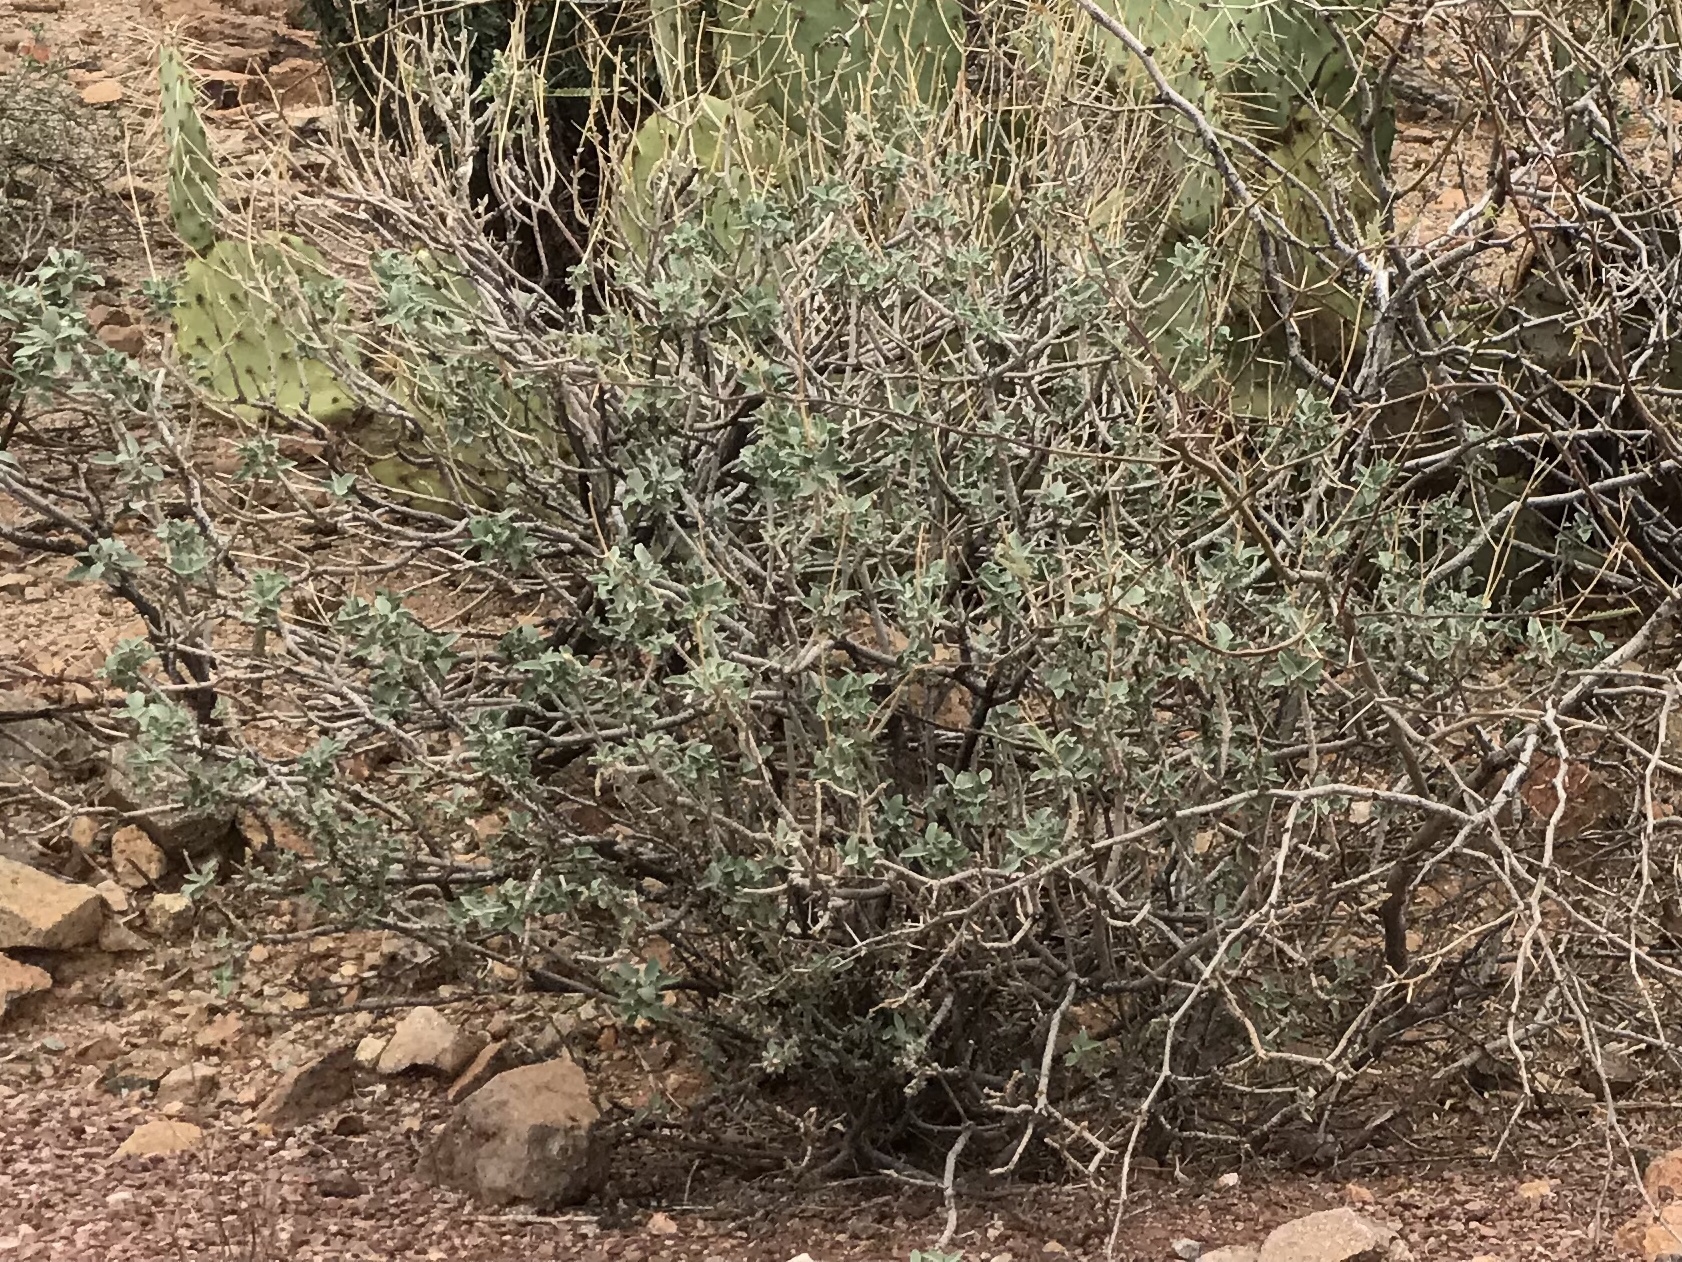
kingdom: Plantae
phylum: Tracheophyta
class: Magnoliopsida
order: Asterales
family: Asteraceae
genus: Encelia
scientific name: Encelia farinosa
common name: Brittlebush
